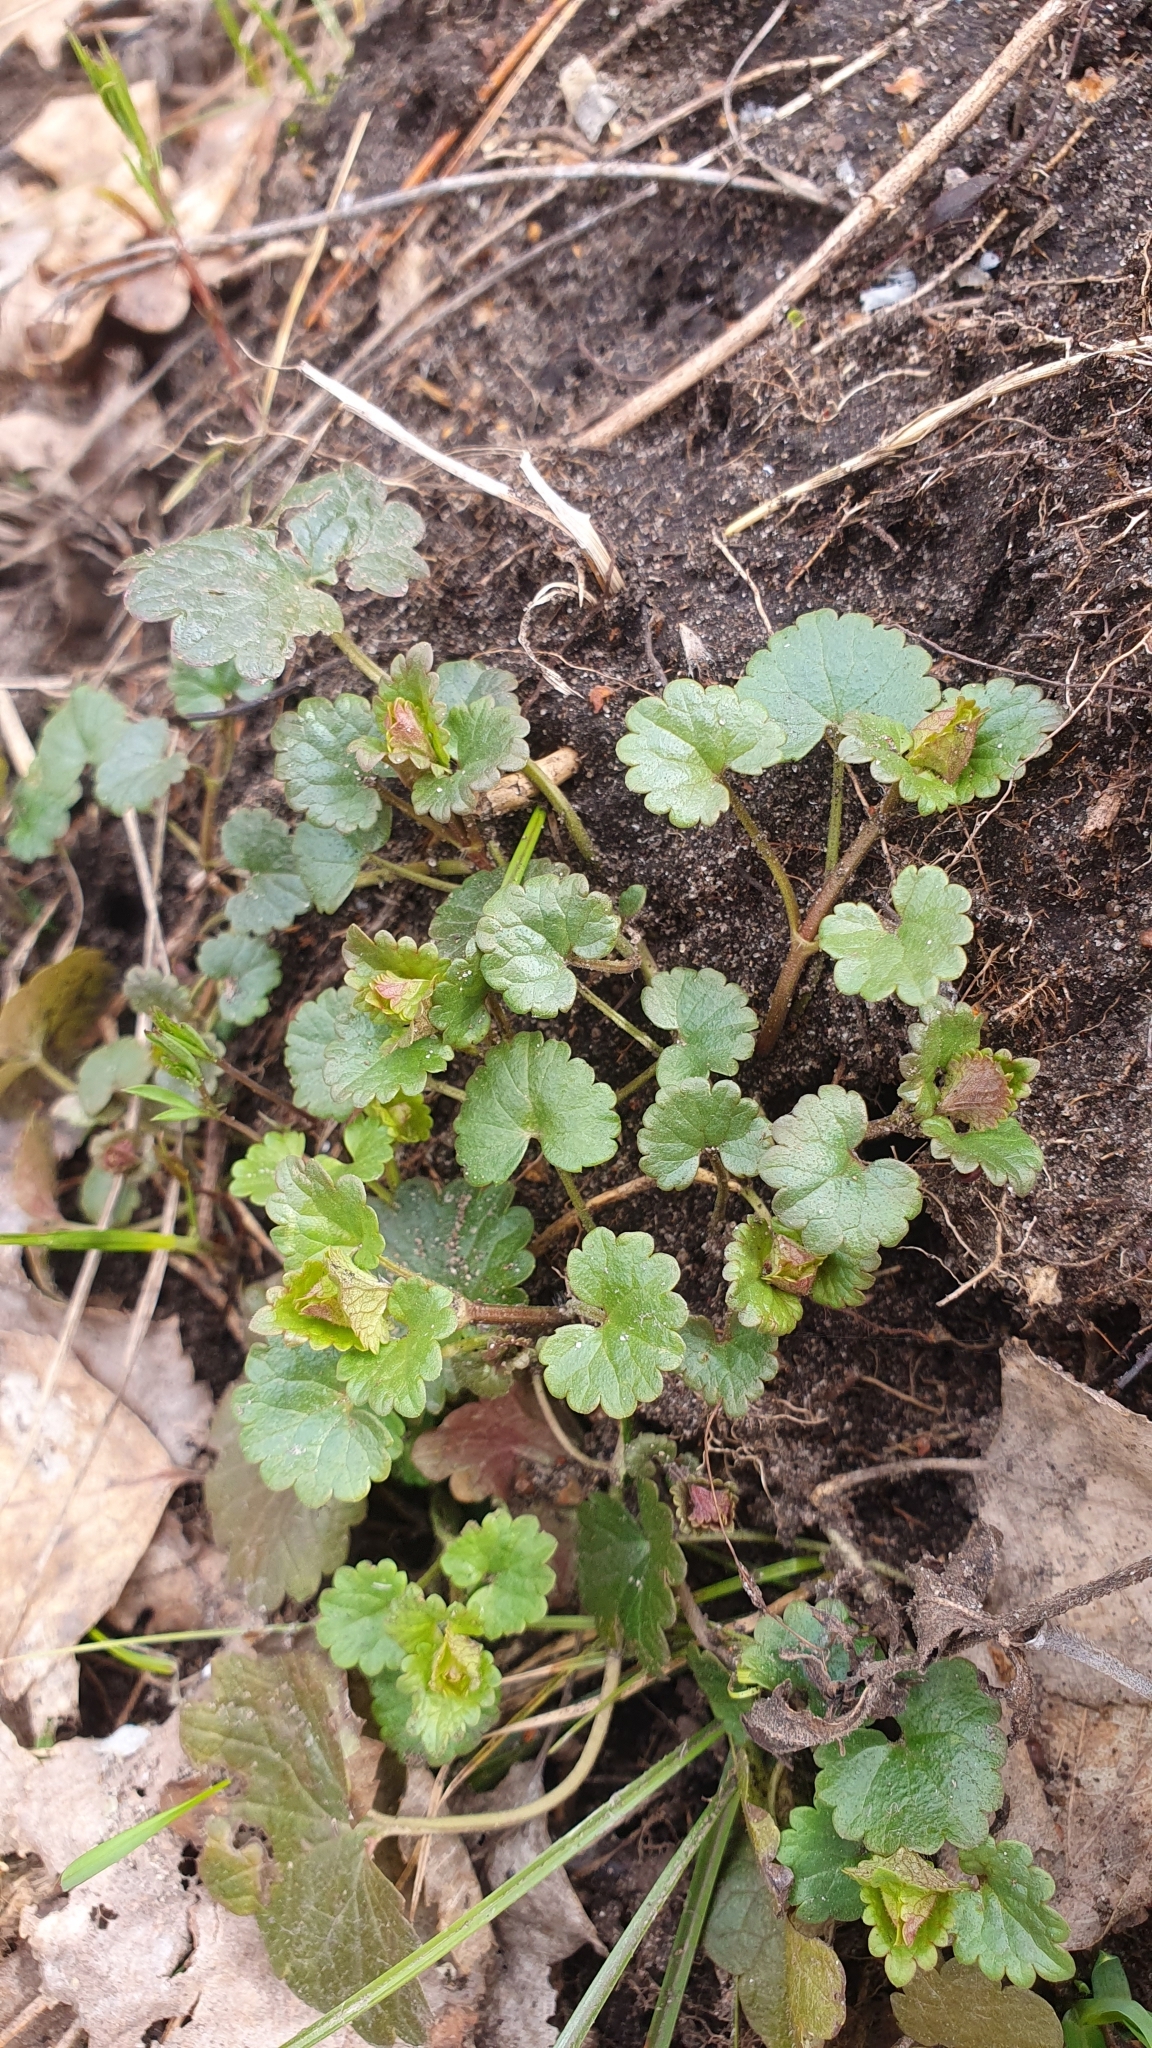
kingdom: Plantae
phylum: Tracheophyta
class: Magnoliopsida
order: Lamiales
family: Lamiaceae
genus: Glechoma
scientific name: Glechoma hederacea
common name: Ground ivy
